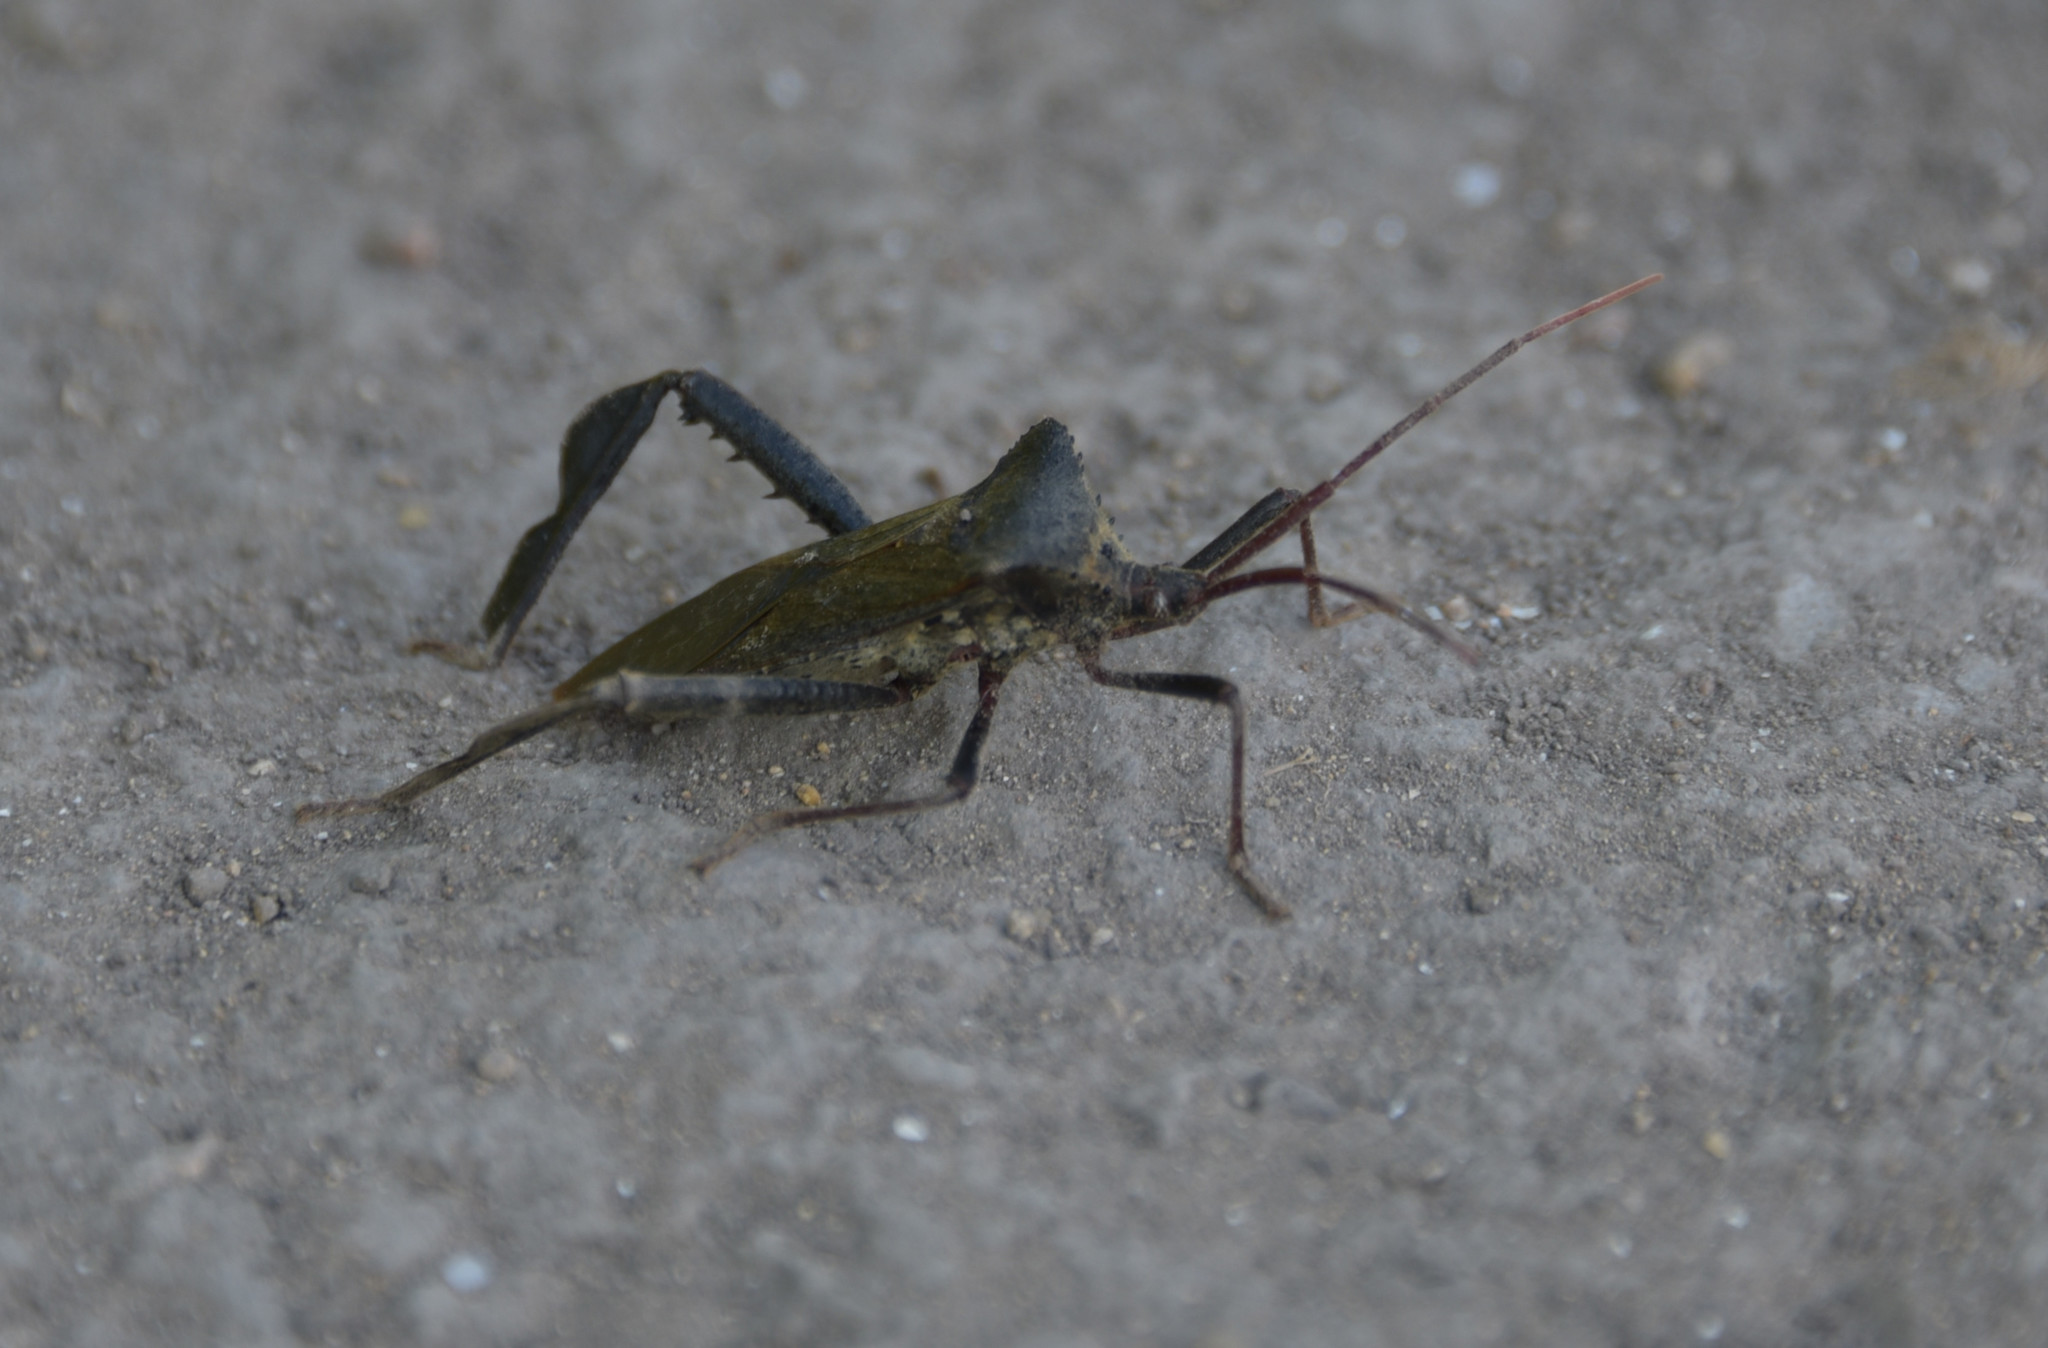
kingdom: Animalia
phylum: Arthropoda
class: Insecta
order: Hemiptera
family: Coreidae
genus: Acanthocephala
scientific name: Acanthocephala terminalis
